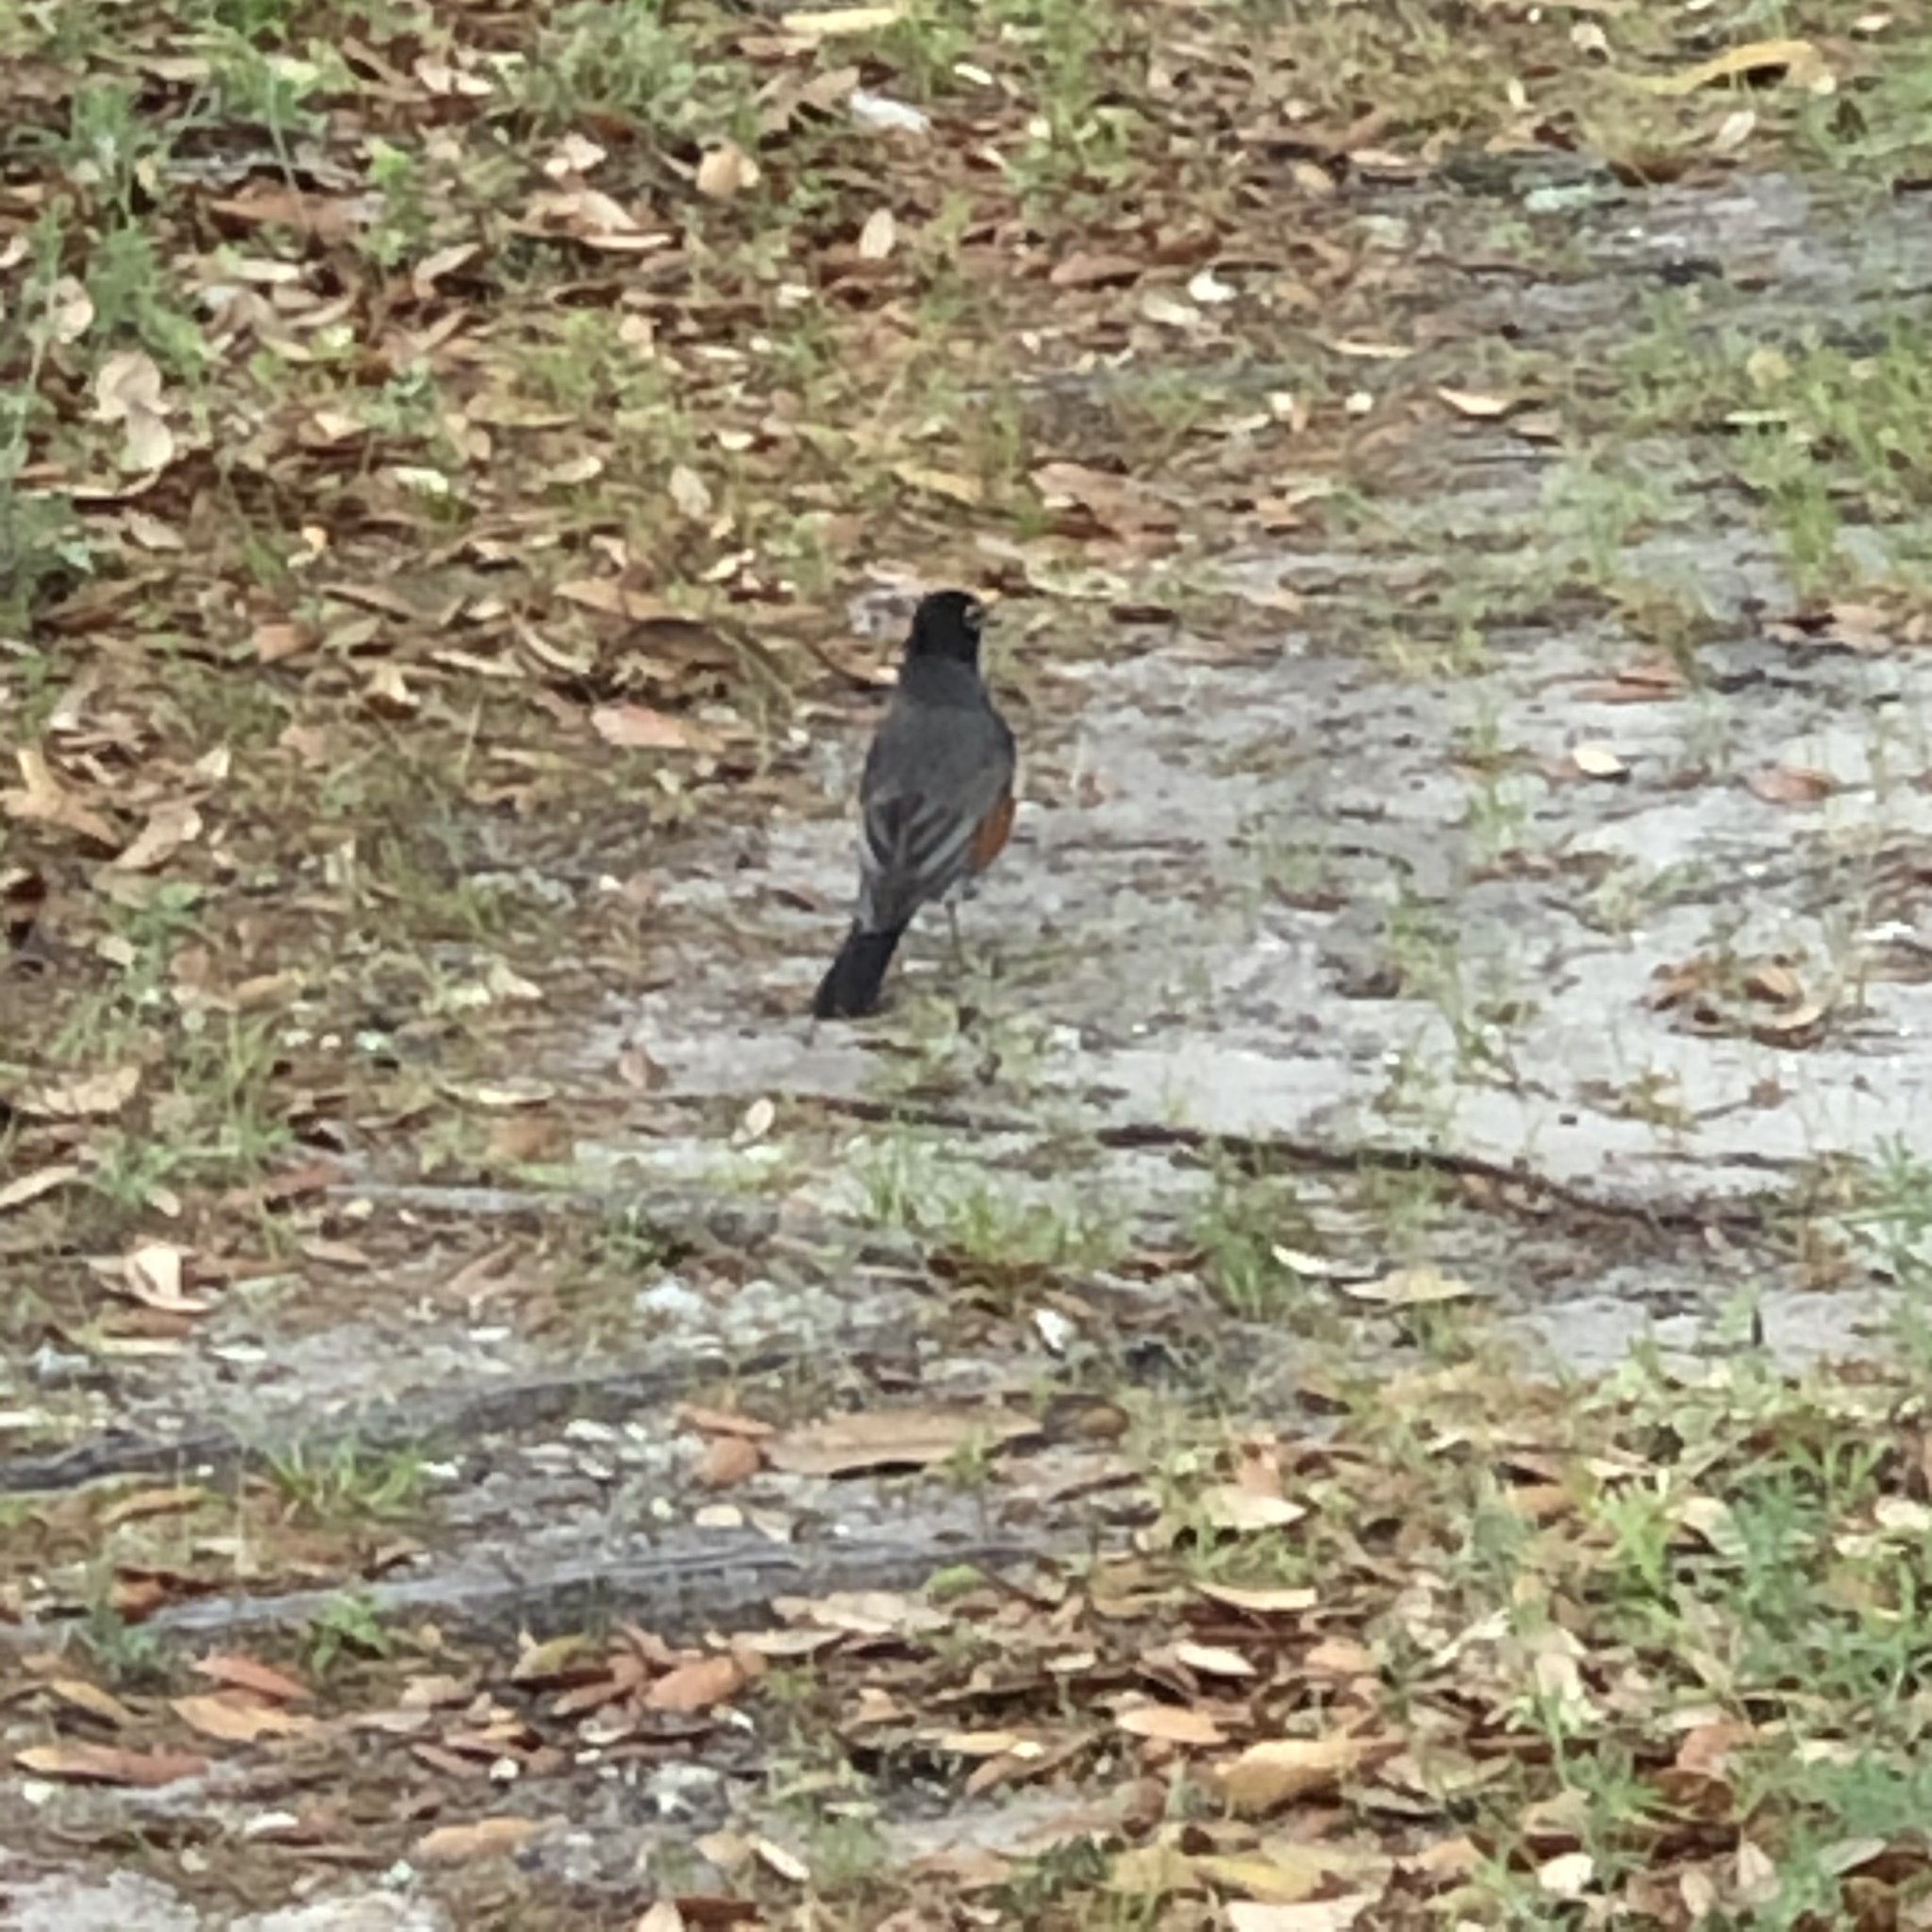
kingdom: Animalia
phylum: Chordata
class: Aves
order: Passeriformes
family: Turdidae
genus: Turdus
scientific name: Turdus migratorius
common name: American robin
